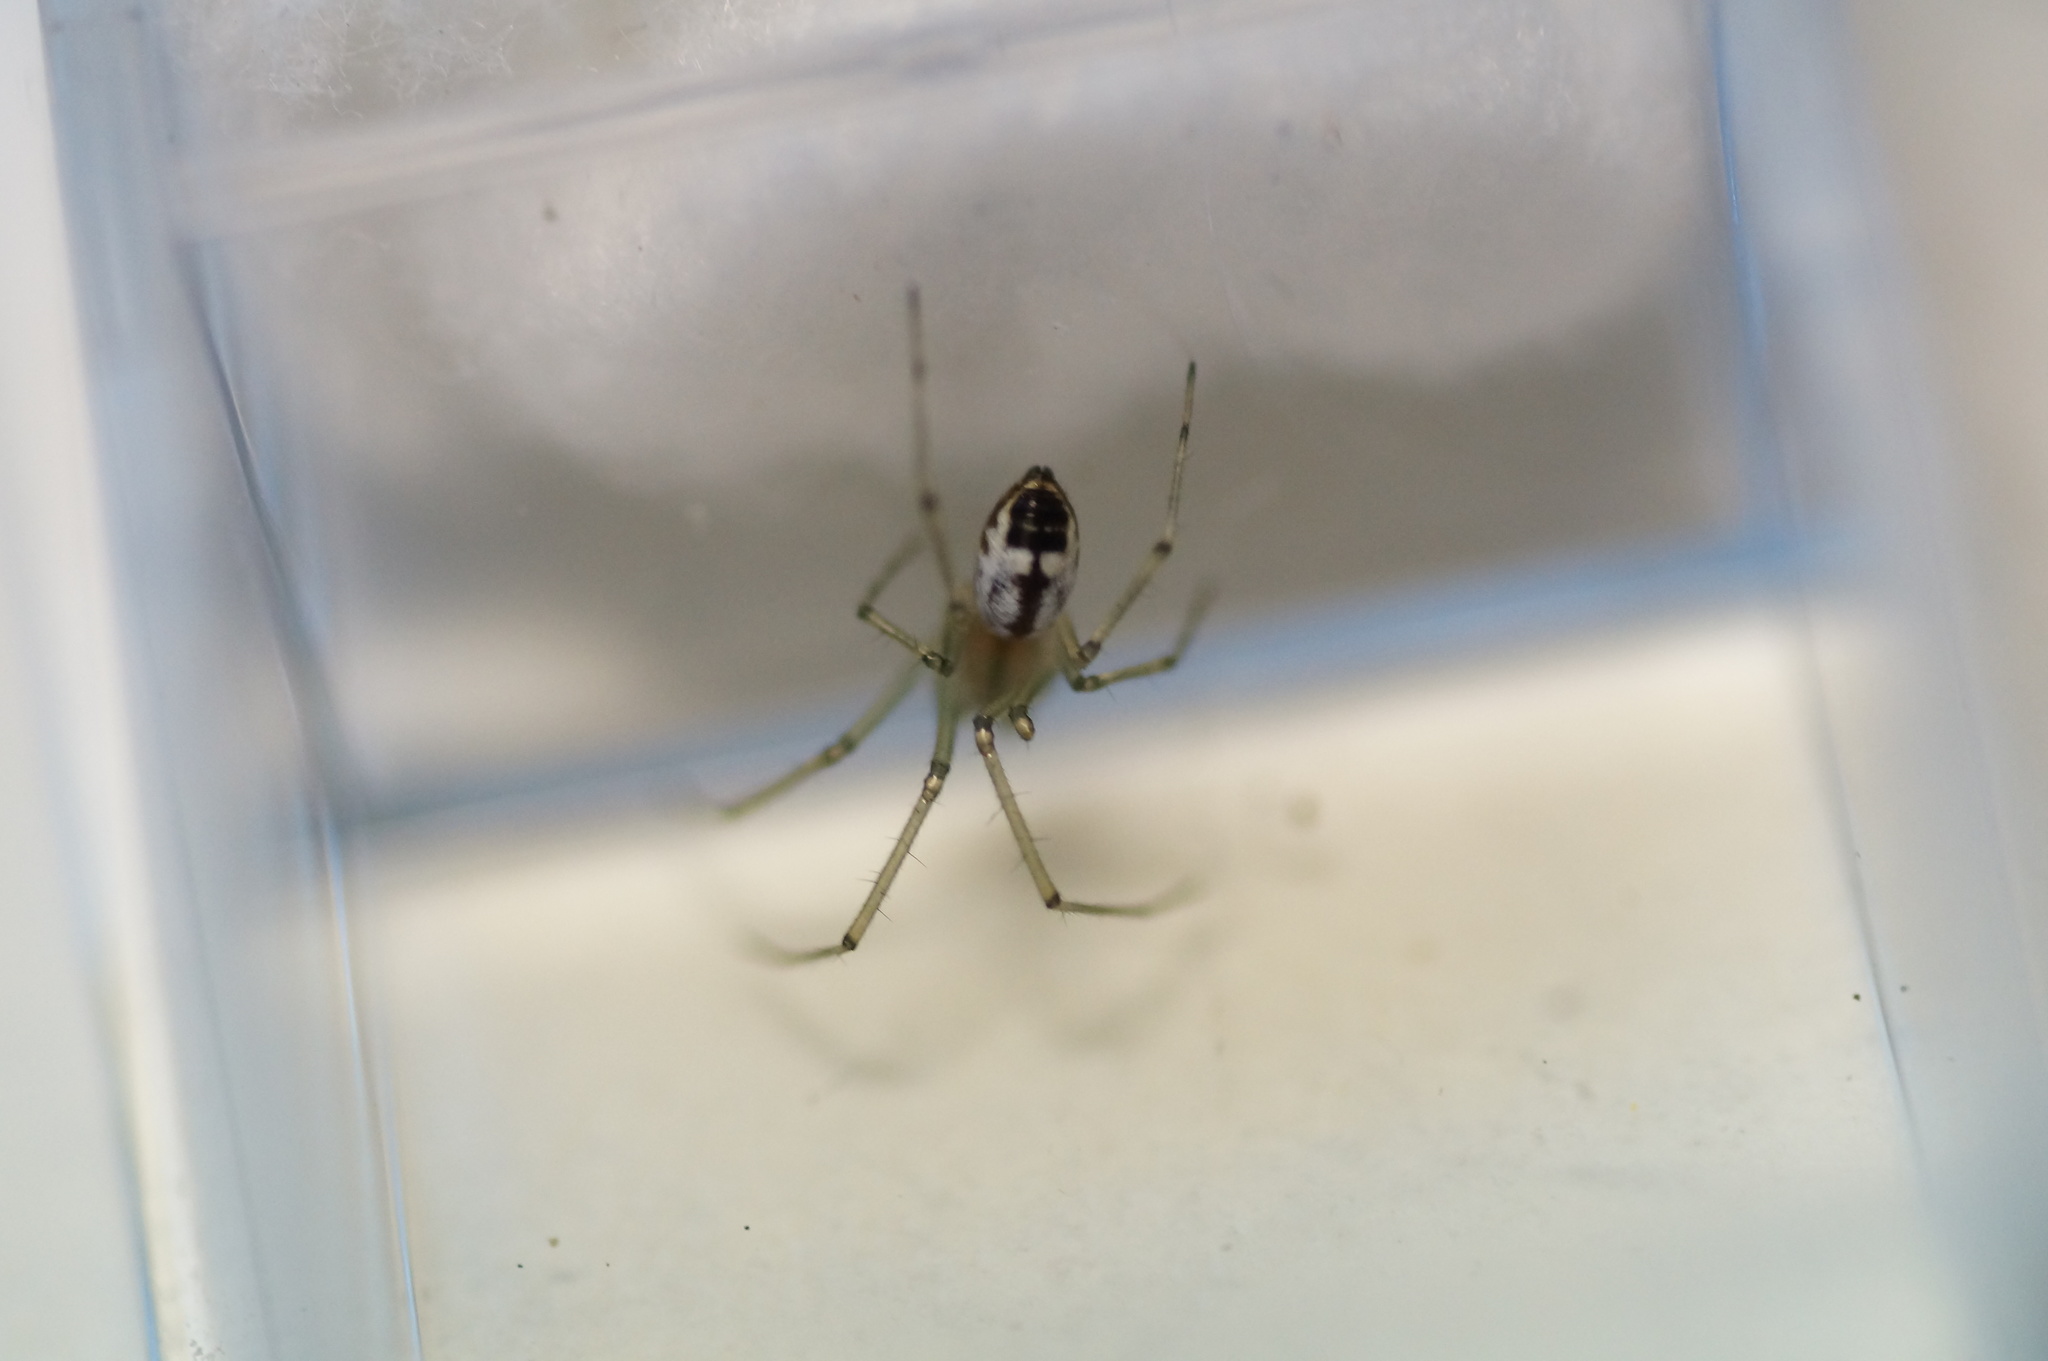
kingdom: Animalia
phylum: Arthropoda
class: Arachnida
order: Araneae
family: Linyphiidae
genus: Neriene
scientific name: Neriene emphana
